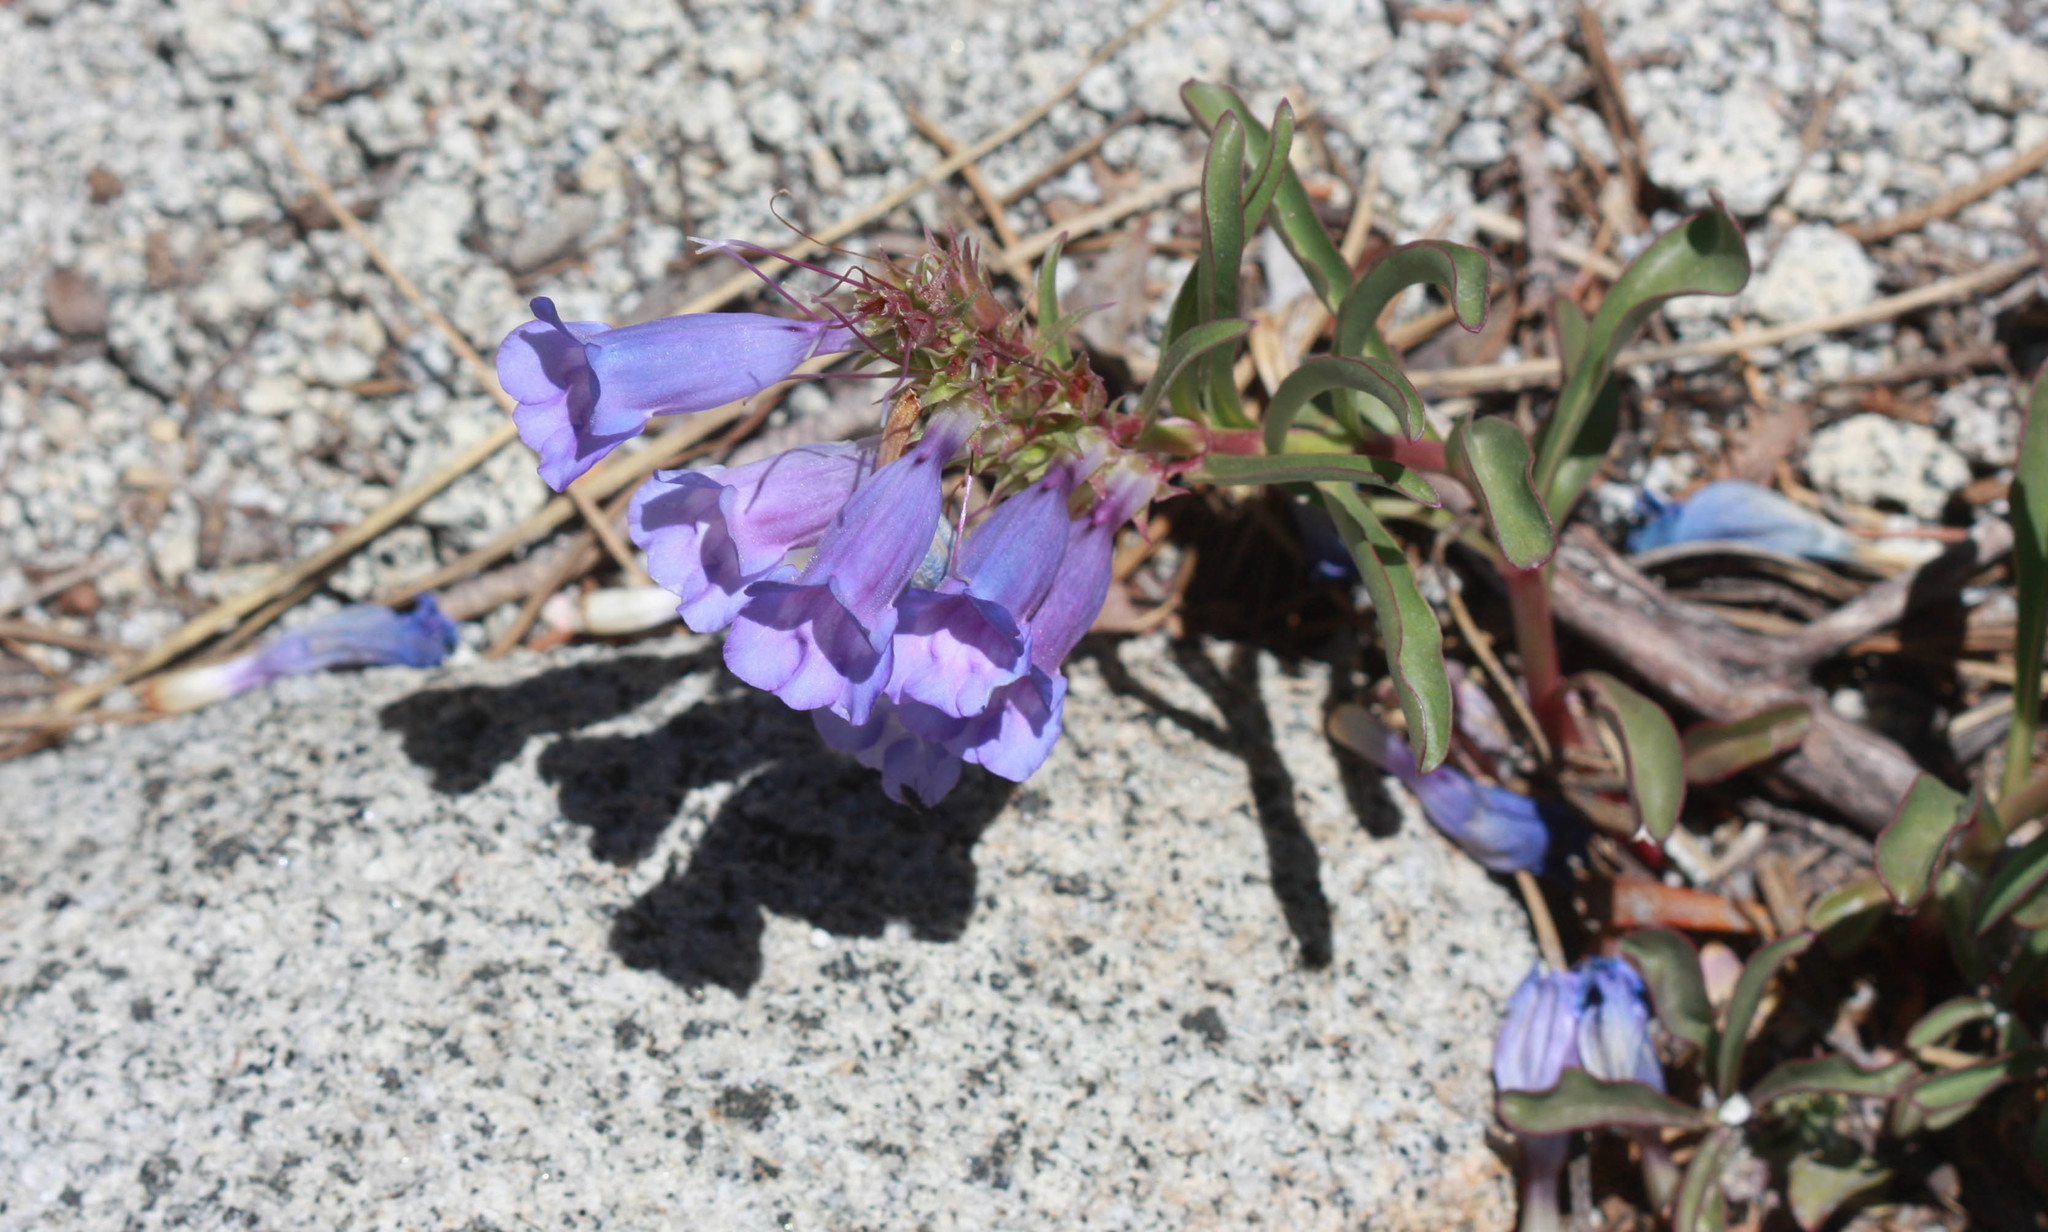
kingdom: Plantae
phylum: Tracheophyta
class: Magnoliopsida
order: Lamiales
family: Plantaginaceae
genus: Penstemon
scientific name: Penstemon speciosus
